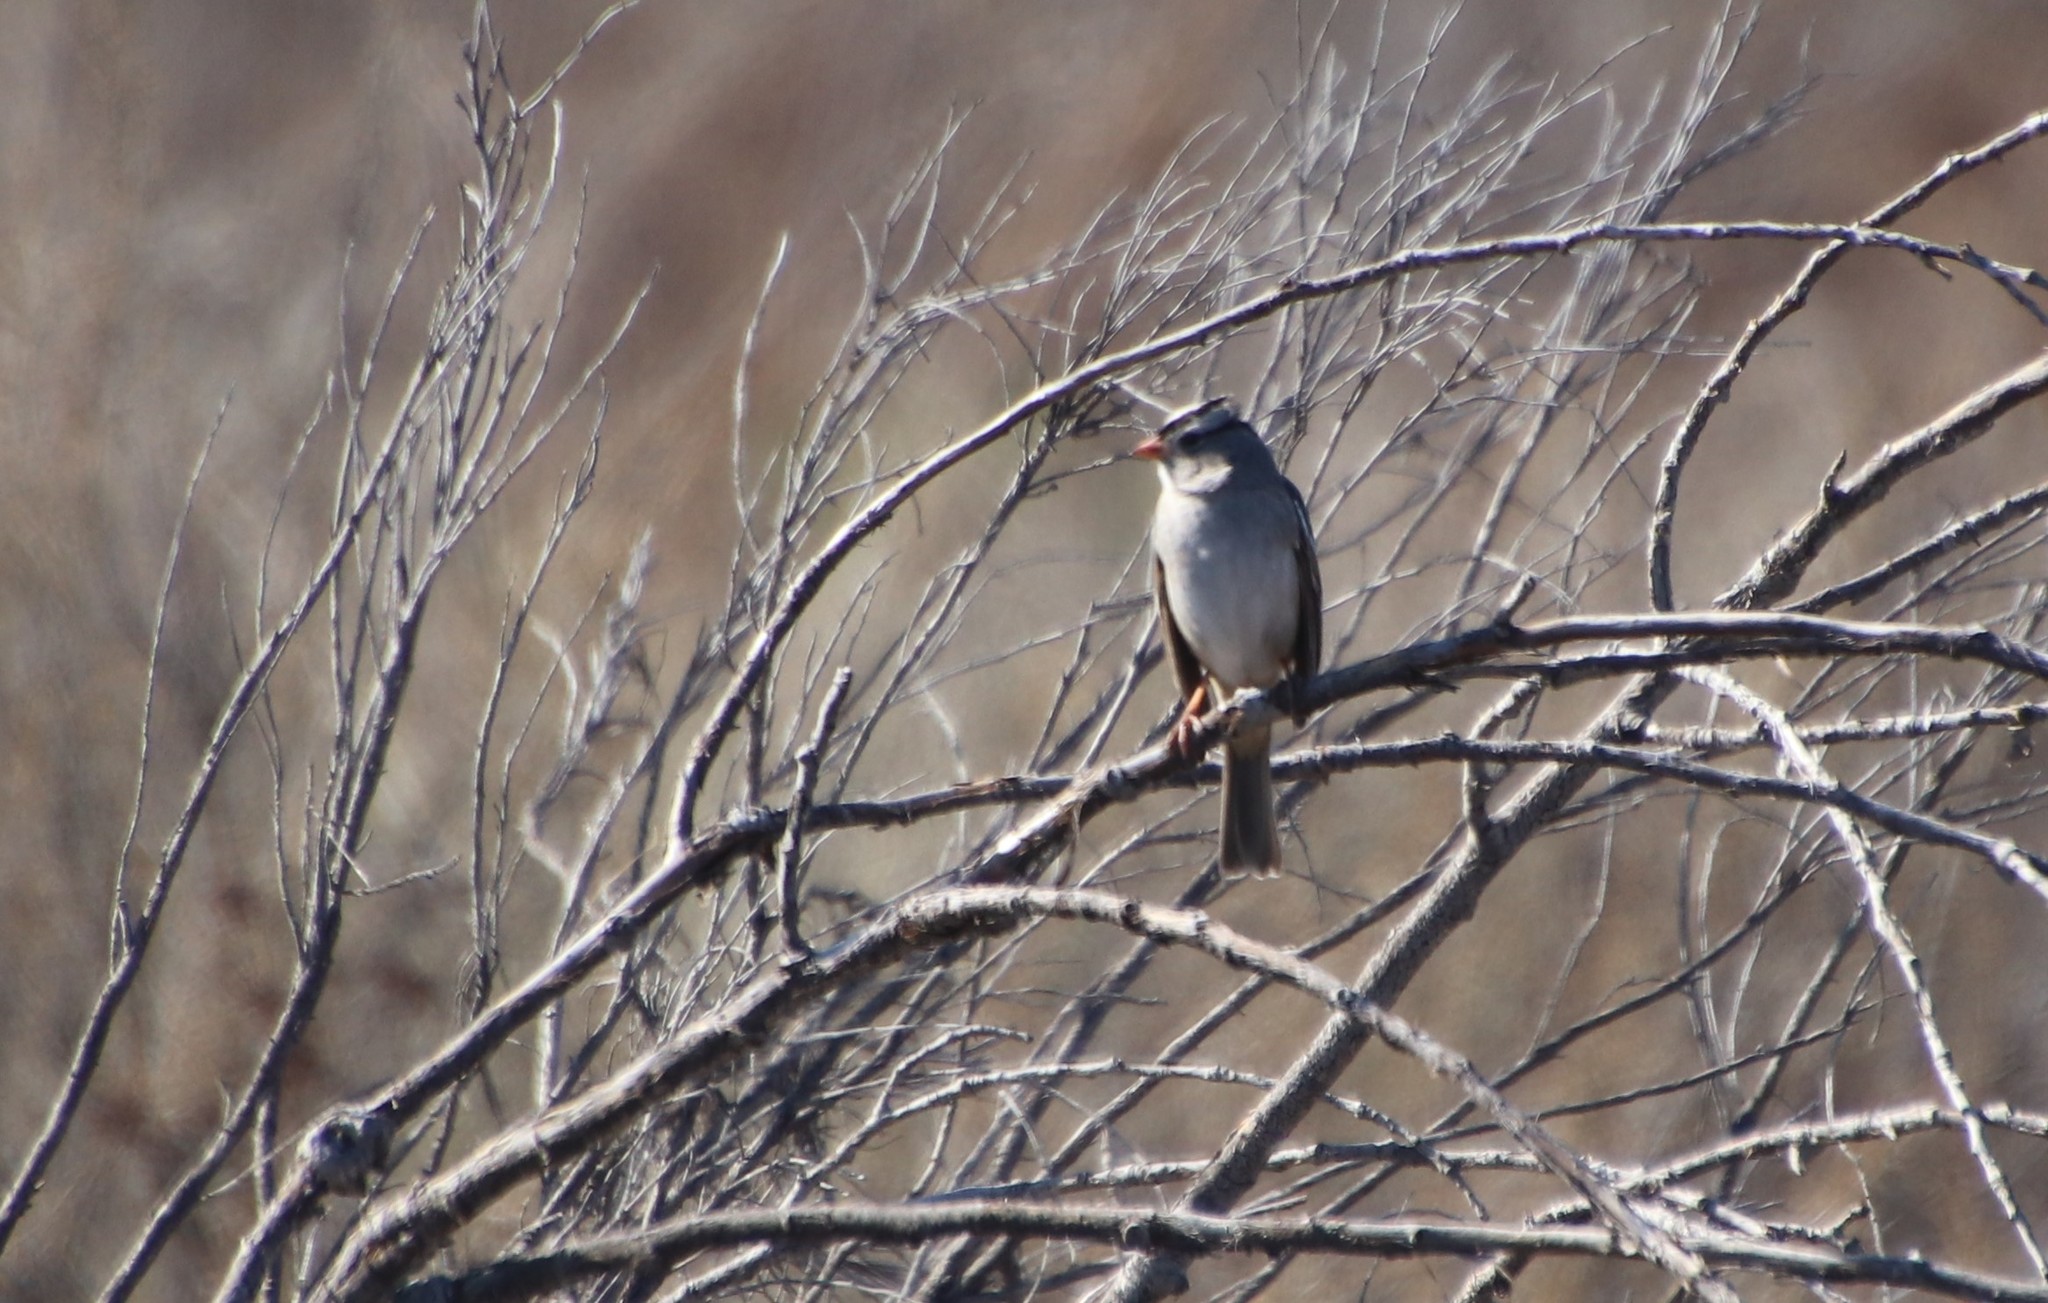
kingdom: Animalia
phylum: Chordata
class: Aves
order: Passeriformes
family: Passerellidae
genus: Zonotrichia
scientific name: Zonotrichia leucophrys
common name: White-crowned sparrow
